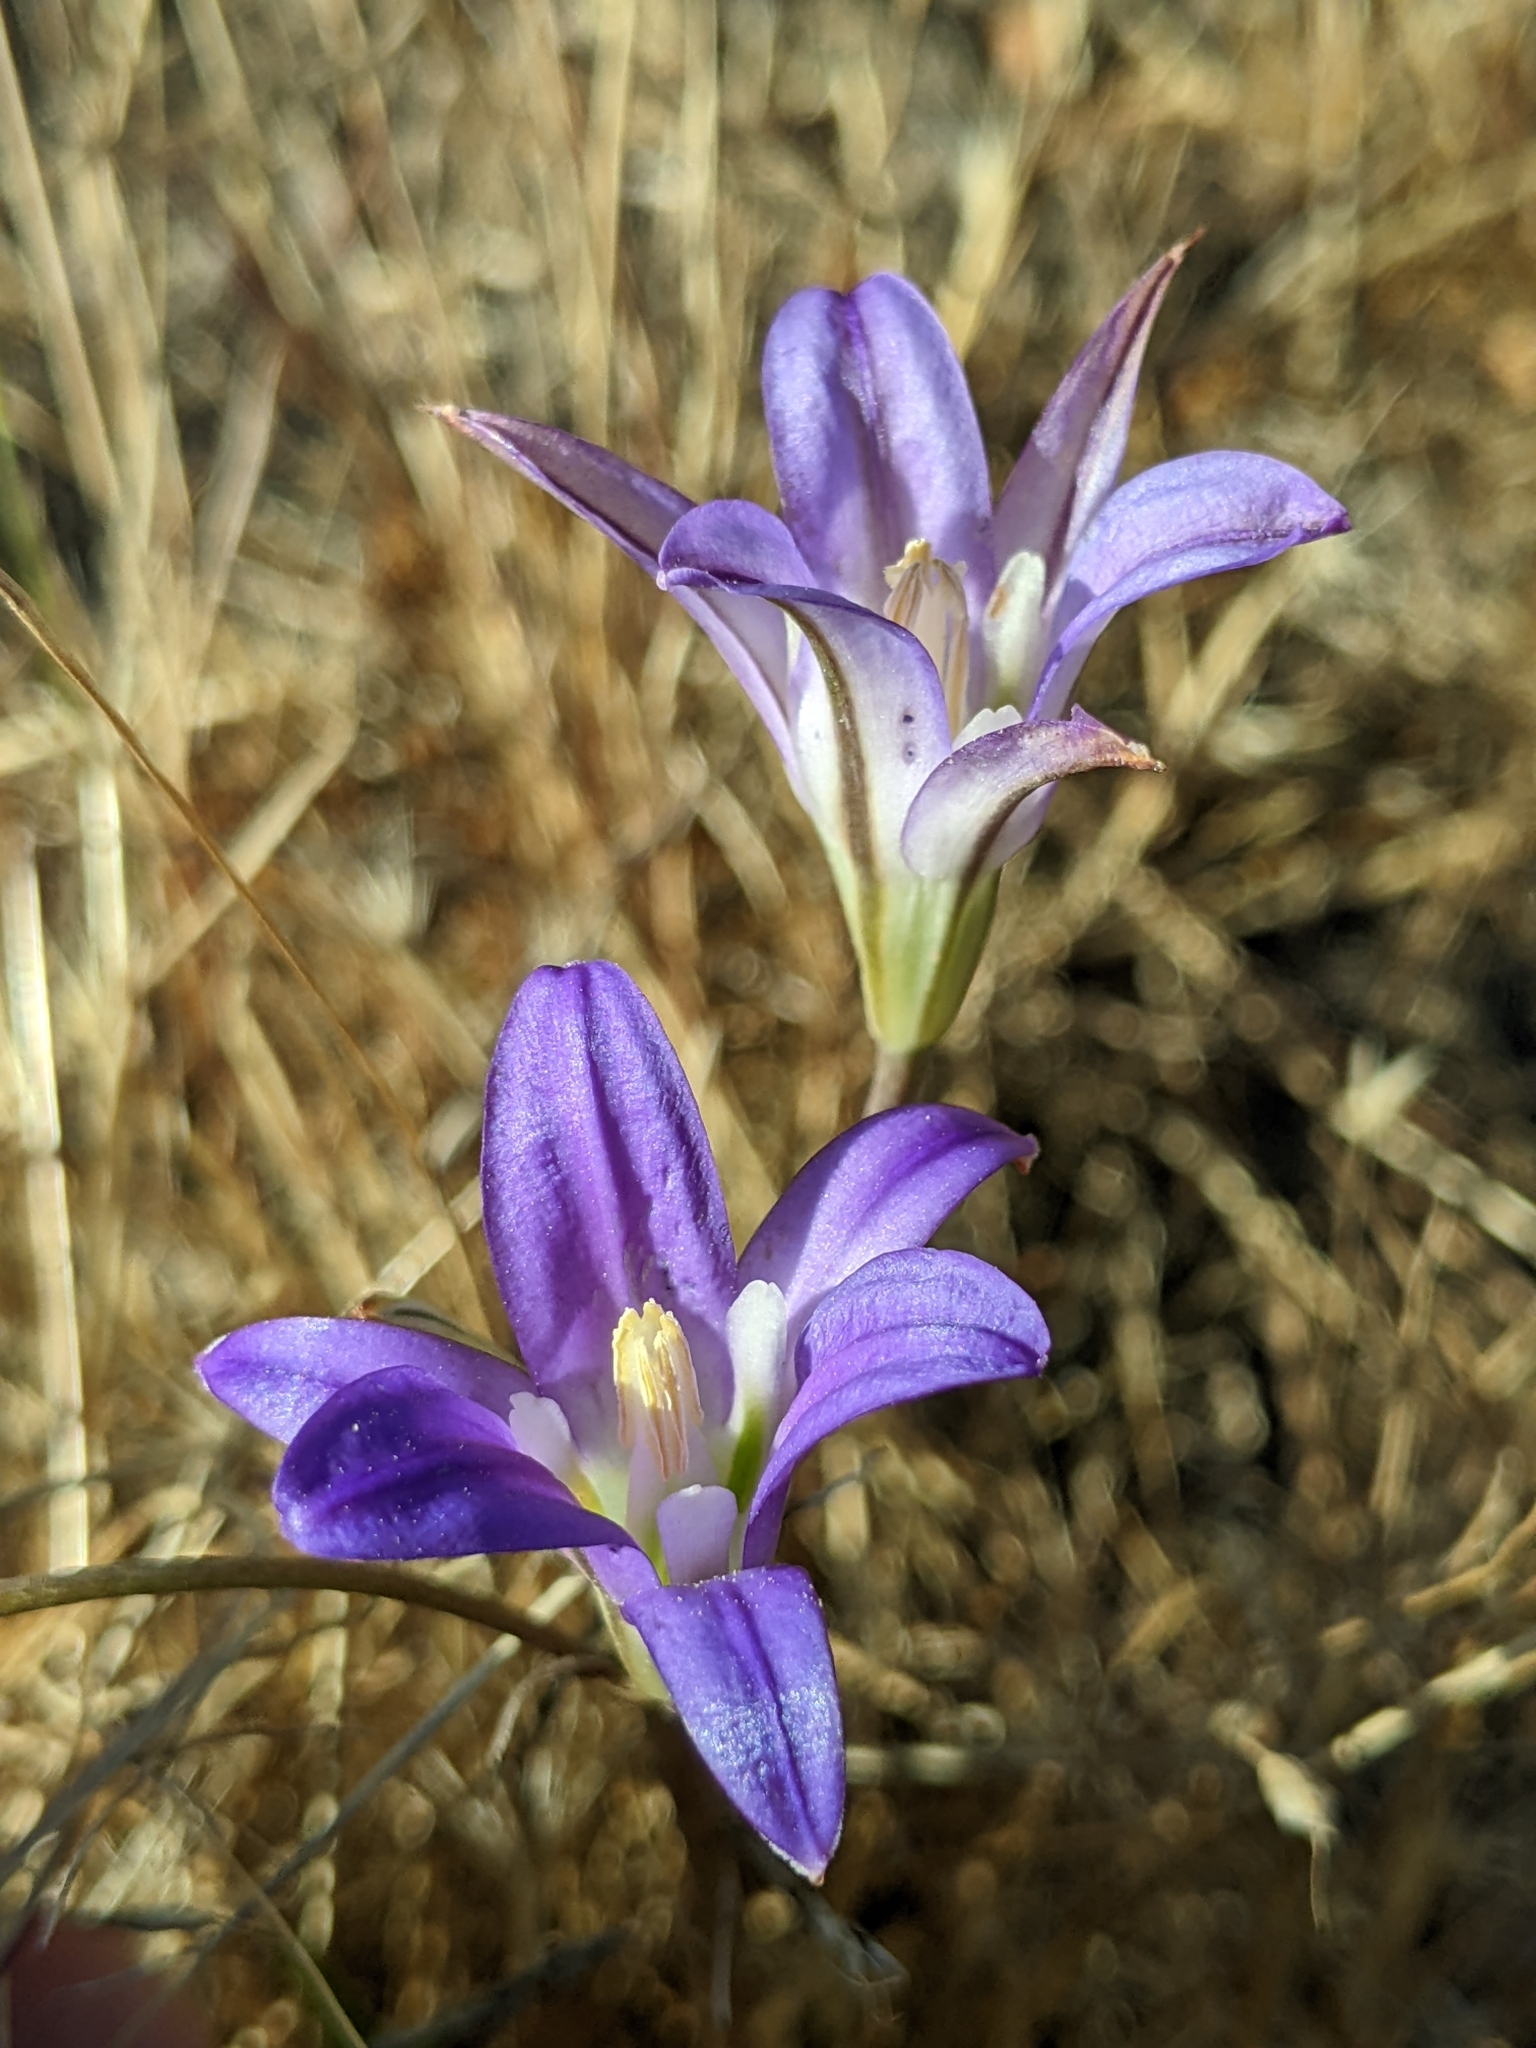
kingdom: Plantae
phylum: Tracheophyta
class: Liliopsida
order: Asparagales
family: Asparagaceae
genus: Brodiaea
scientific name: Brodiaea elegans
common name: Elegant cluster-lily
